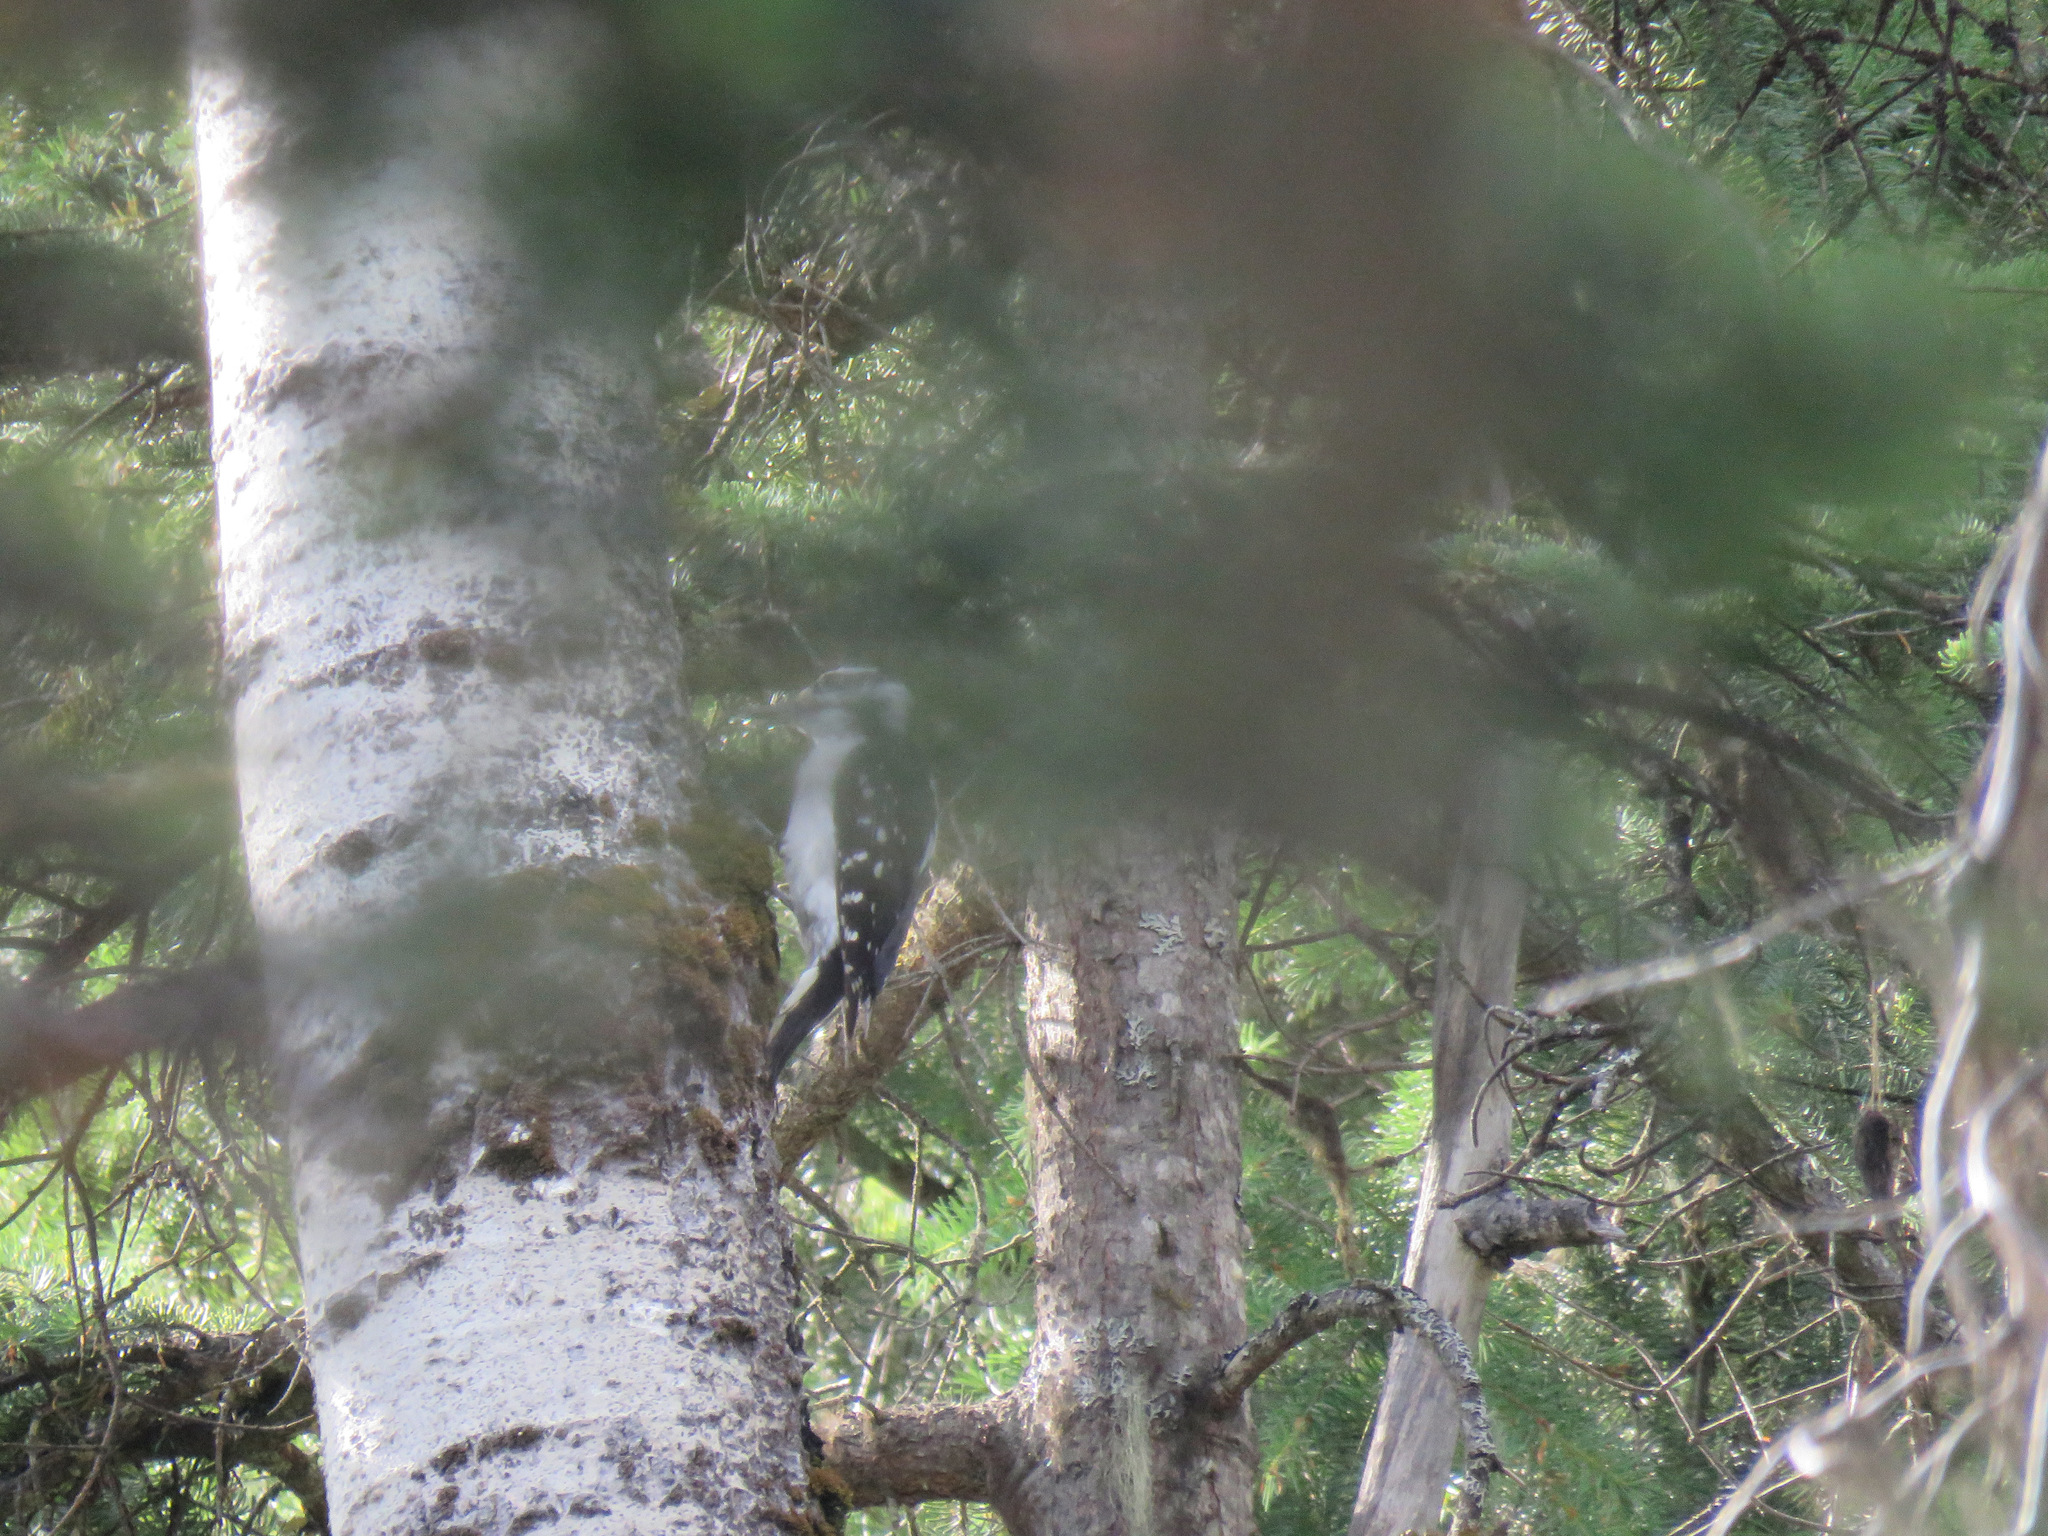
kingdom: Animalia
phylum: Chordata
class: Aves
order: Piciformes
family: Picidae
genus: Leuconotopicus
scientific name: Leuconotopicus villosus
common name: Hairy woodpecker
